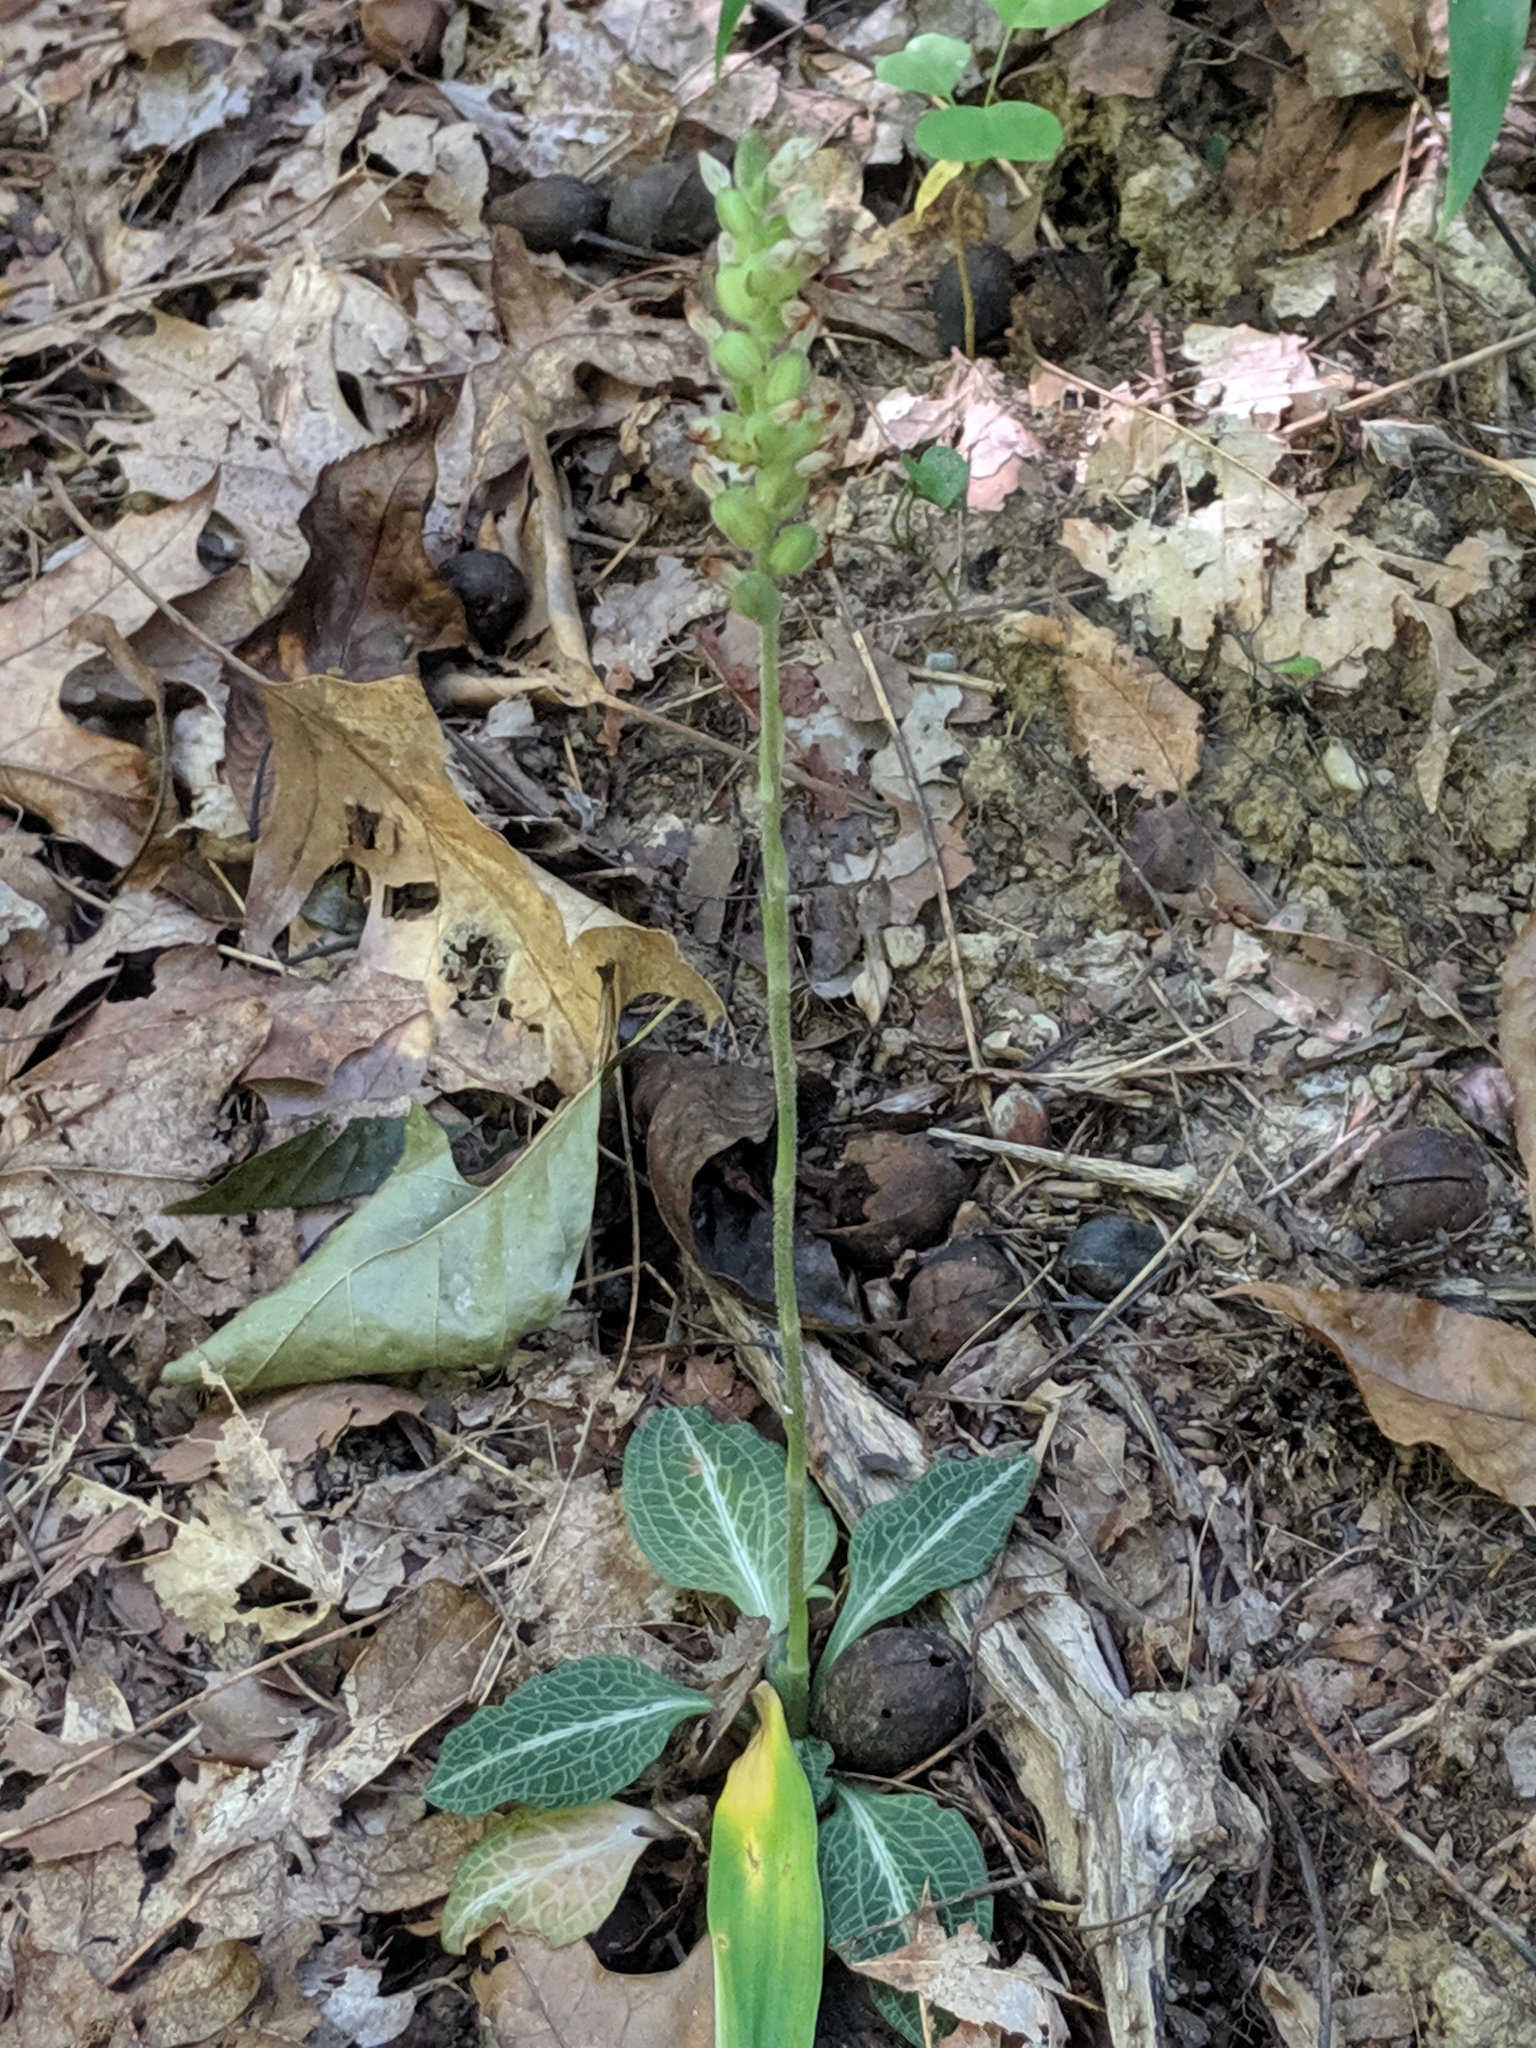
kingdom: Plantae
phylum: Tracheophyta
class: Liliopsida
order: Asparagales
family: Orchidaceae
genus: Goodyera
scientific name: Goodyera pubescens
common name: Downy rattlesnake-plantain
